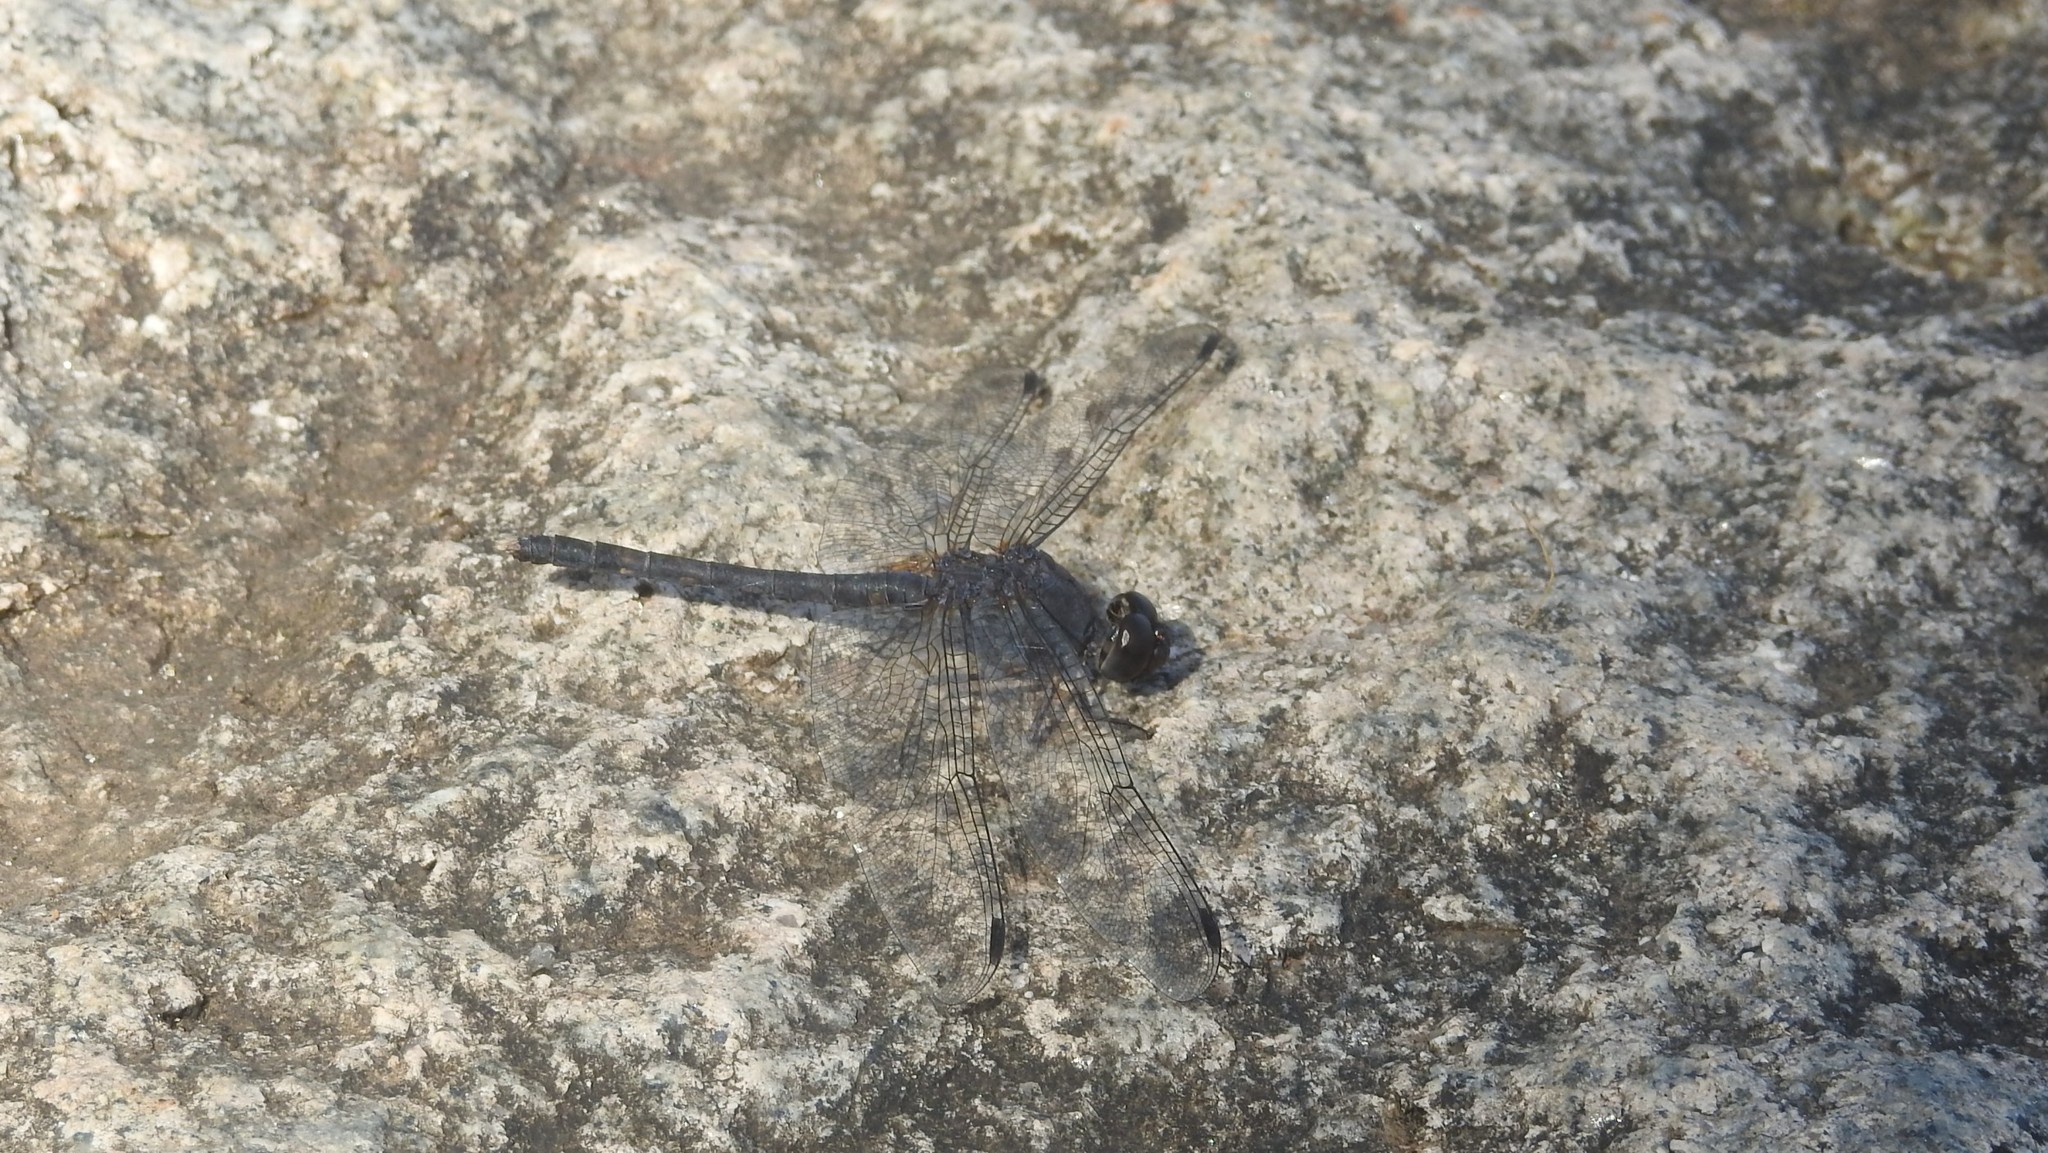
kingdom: Animalia
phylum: Arthropoda
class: Insecta
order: Odonata
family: Libellulidae
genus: Bradinopyga
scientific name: Bradinopyga geminata
